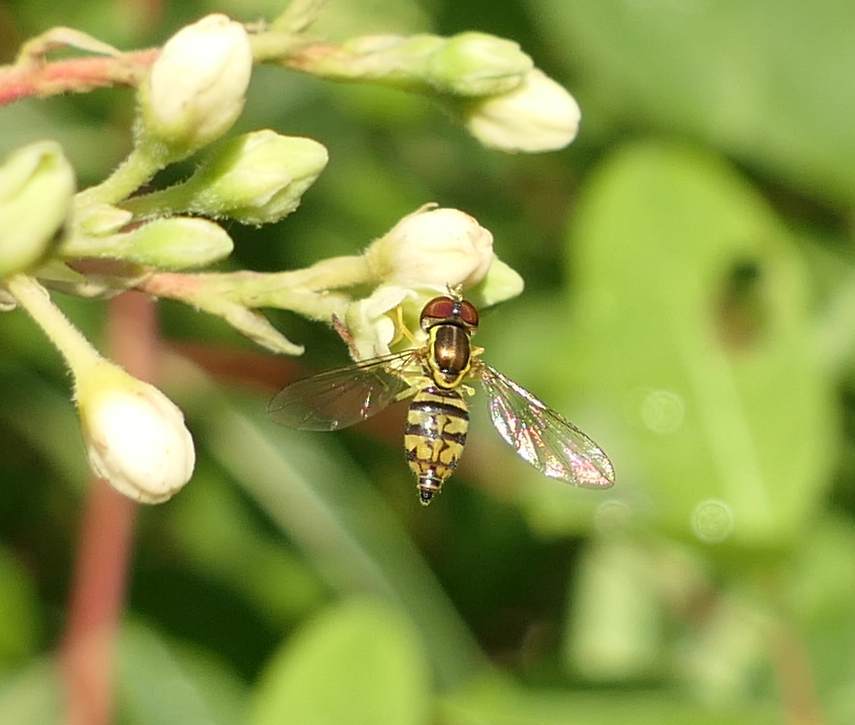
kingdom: Animalia
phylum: Arthropoda
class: Insecta
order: Diptera
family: Syrphidae
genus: Toxomerus
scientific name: Toxomerus geminatus
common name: Eastern calligrapher
